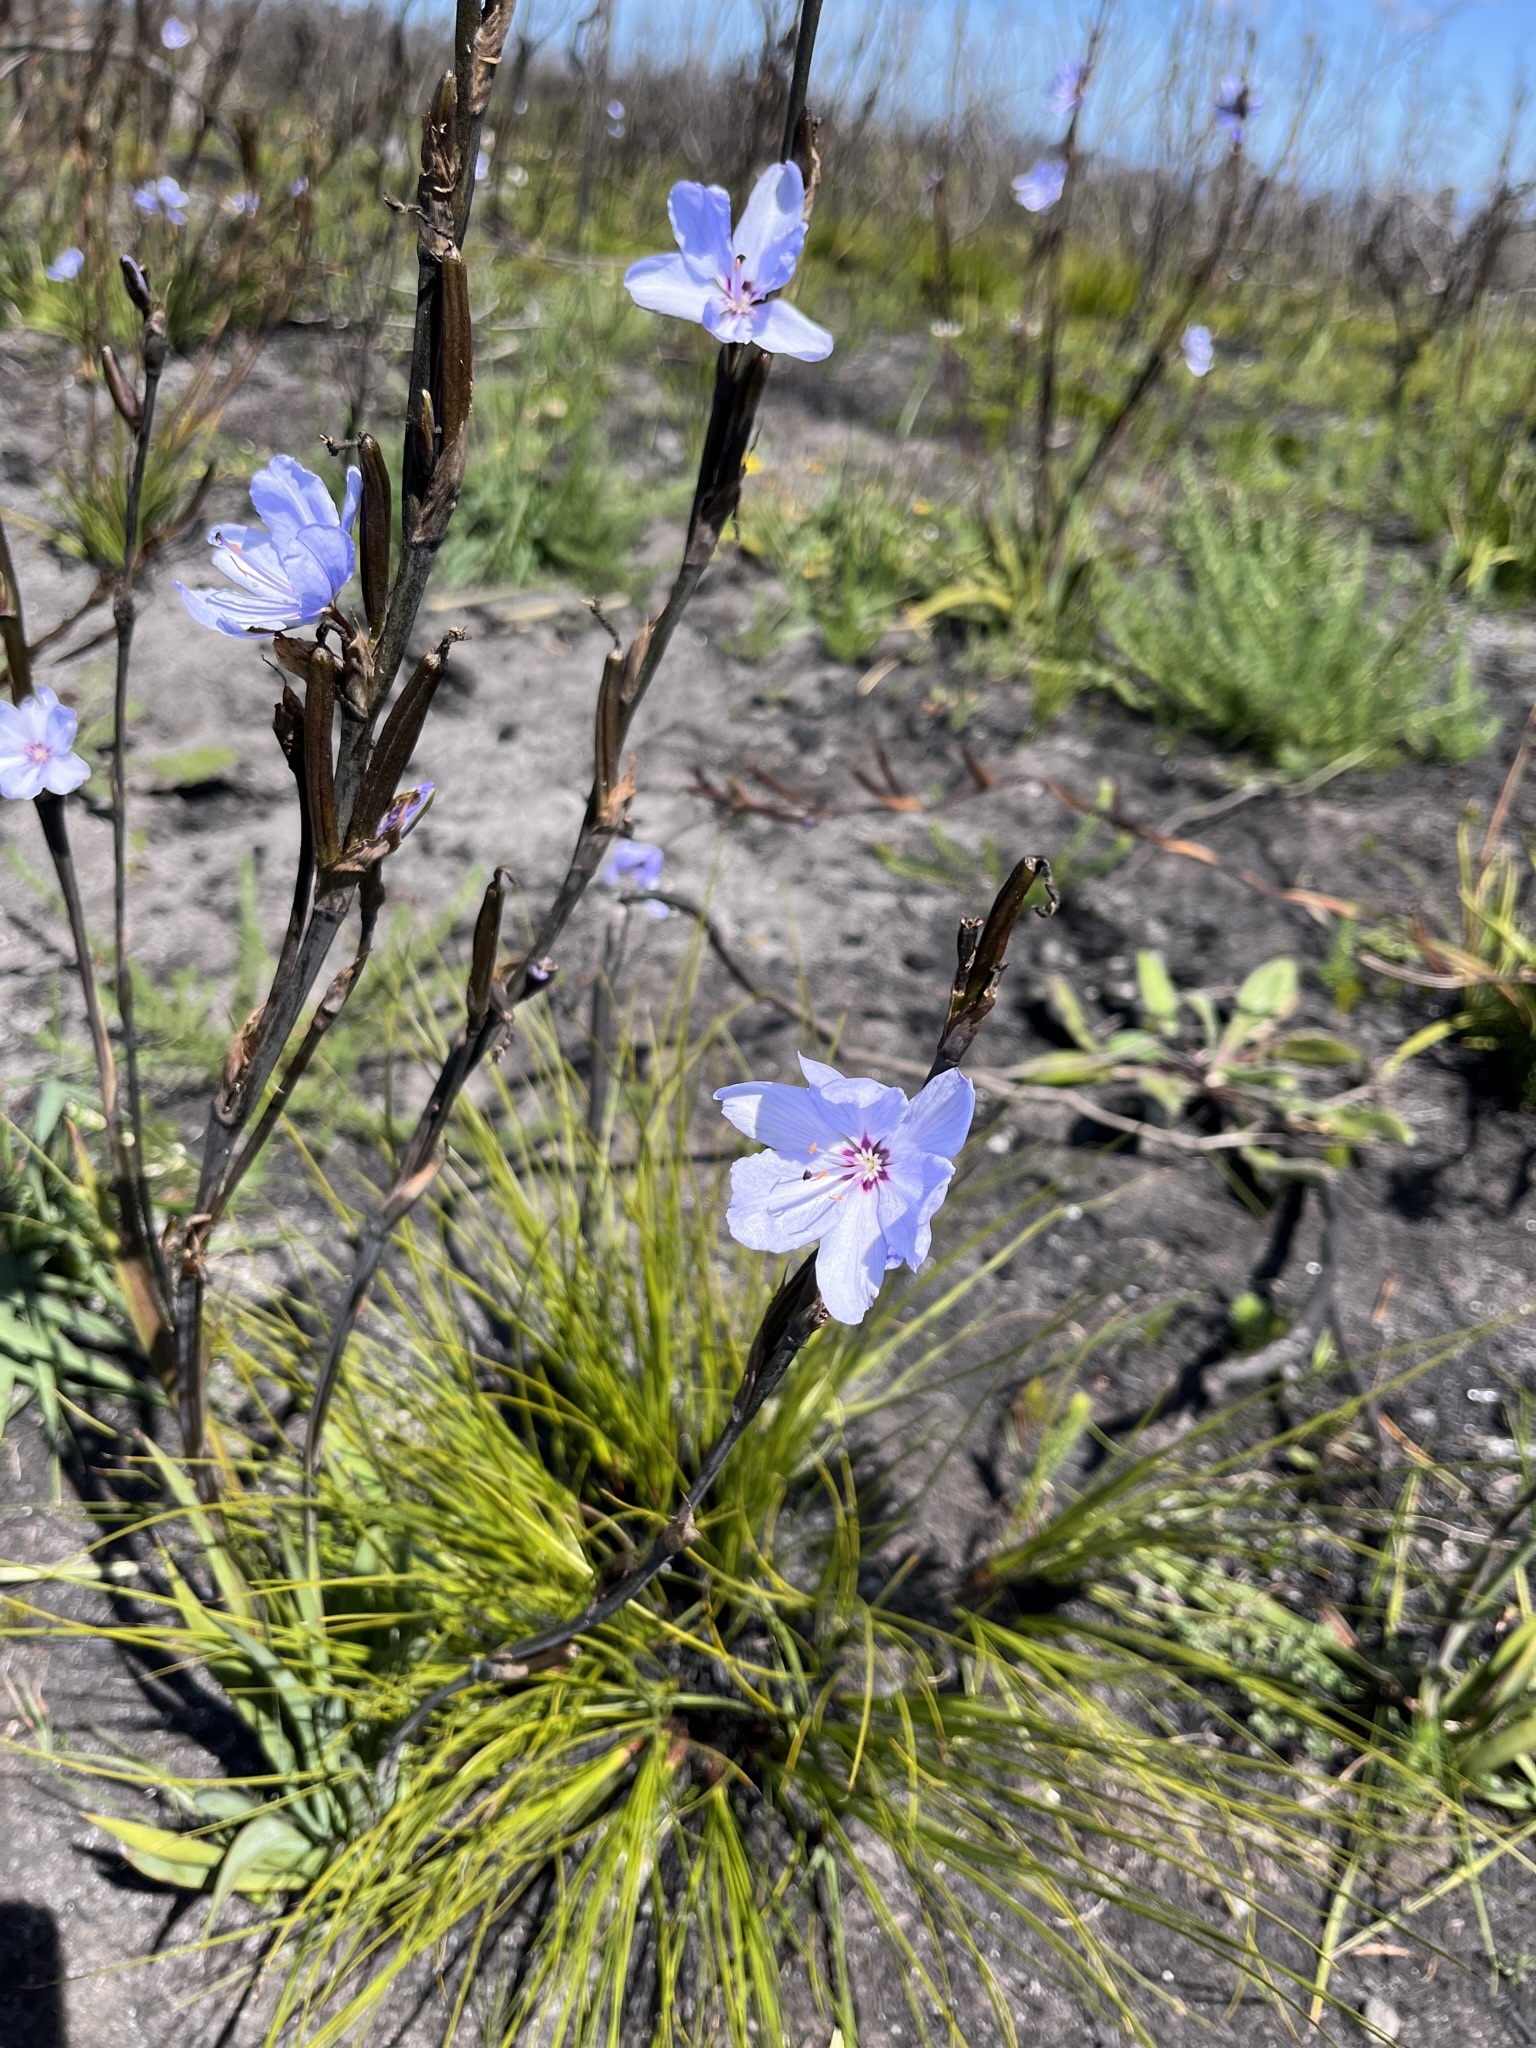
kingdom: Plantae
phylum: Tracheophyta
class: Liliopsida
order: Asparagales
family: Iridaceae
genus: Aristea
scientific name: Aristea spiralis
